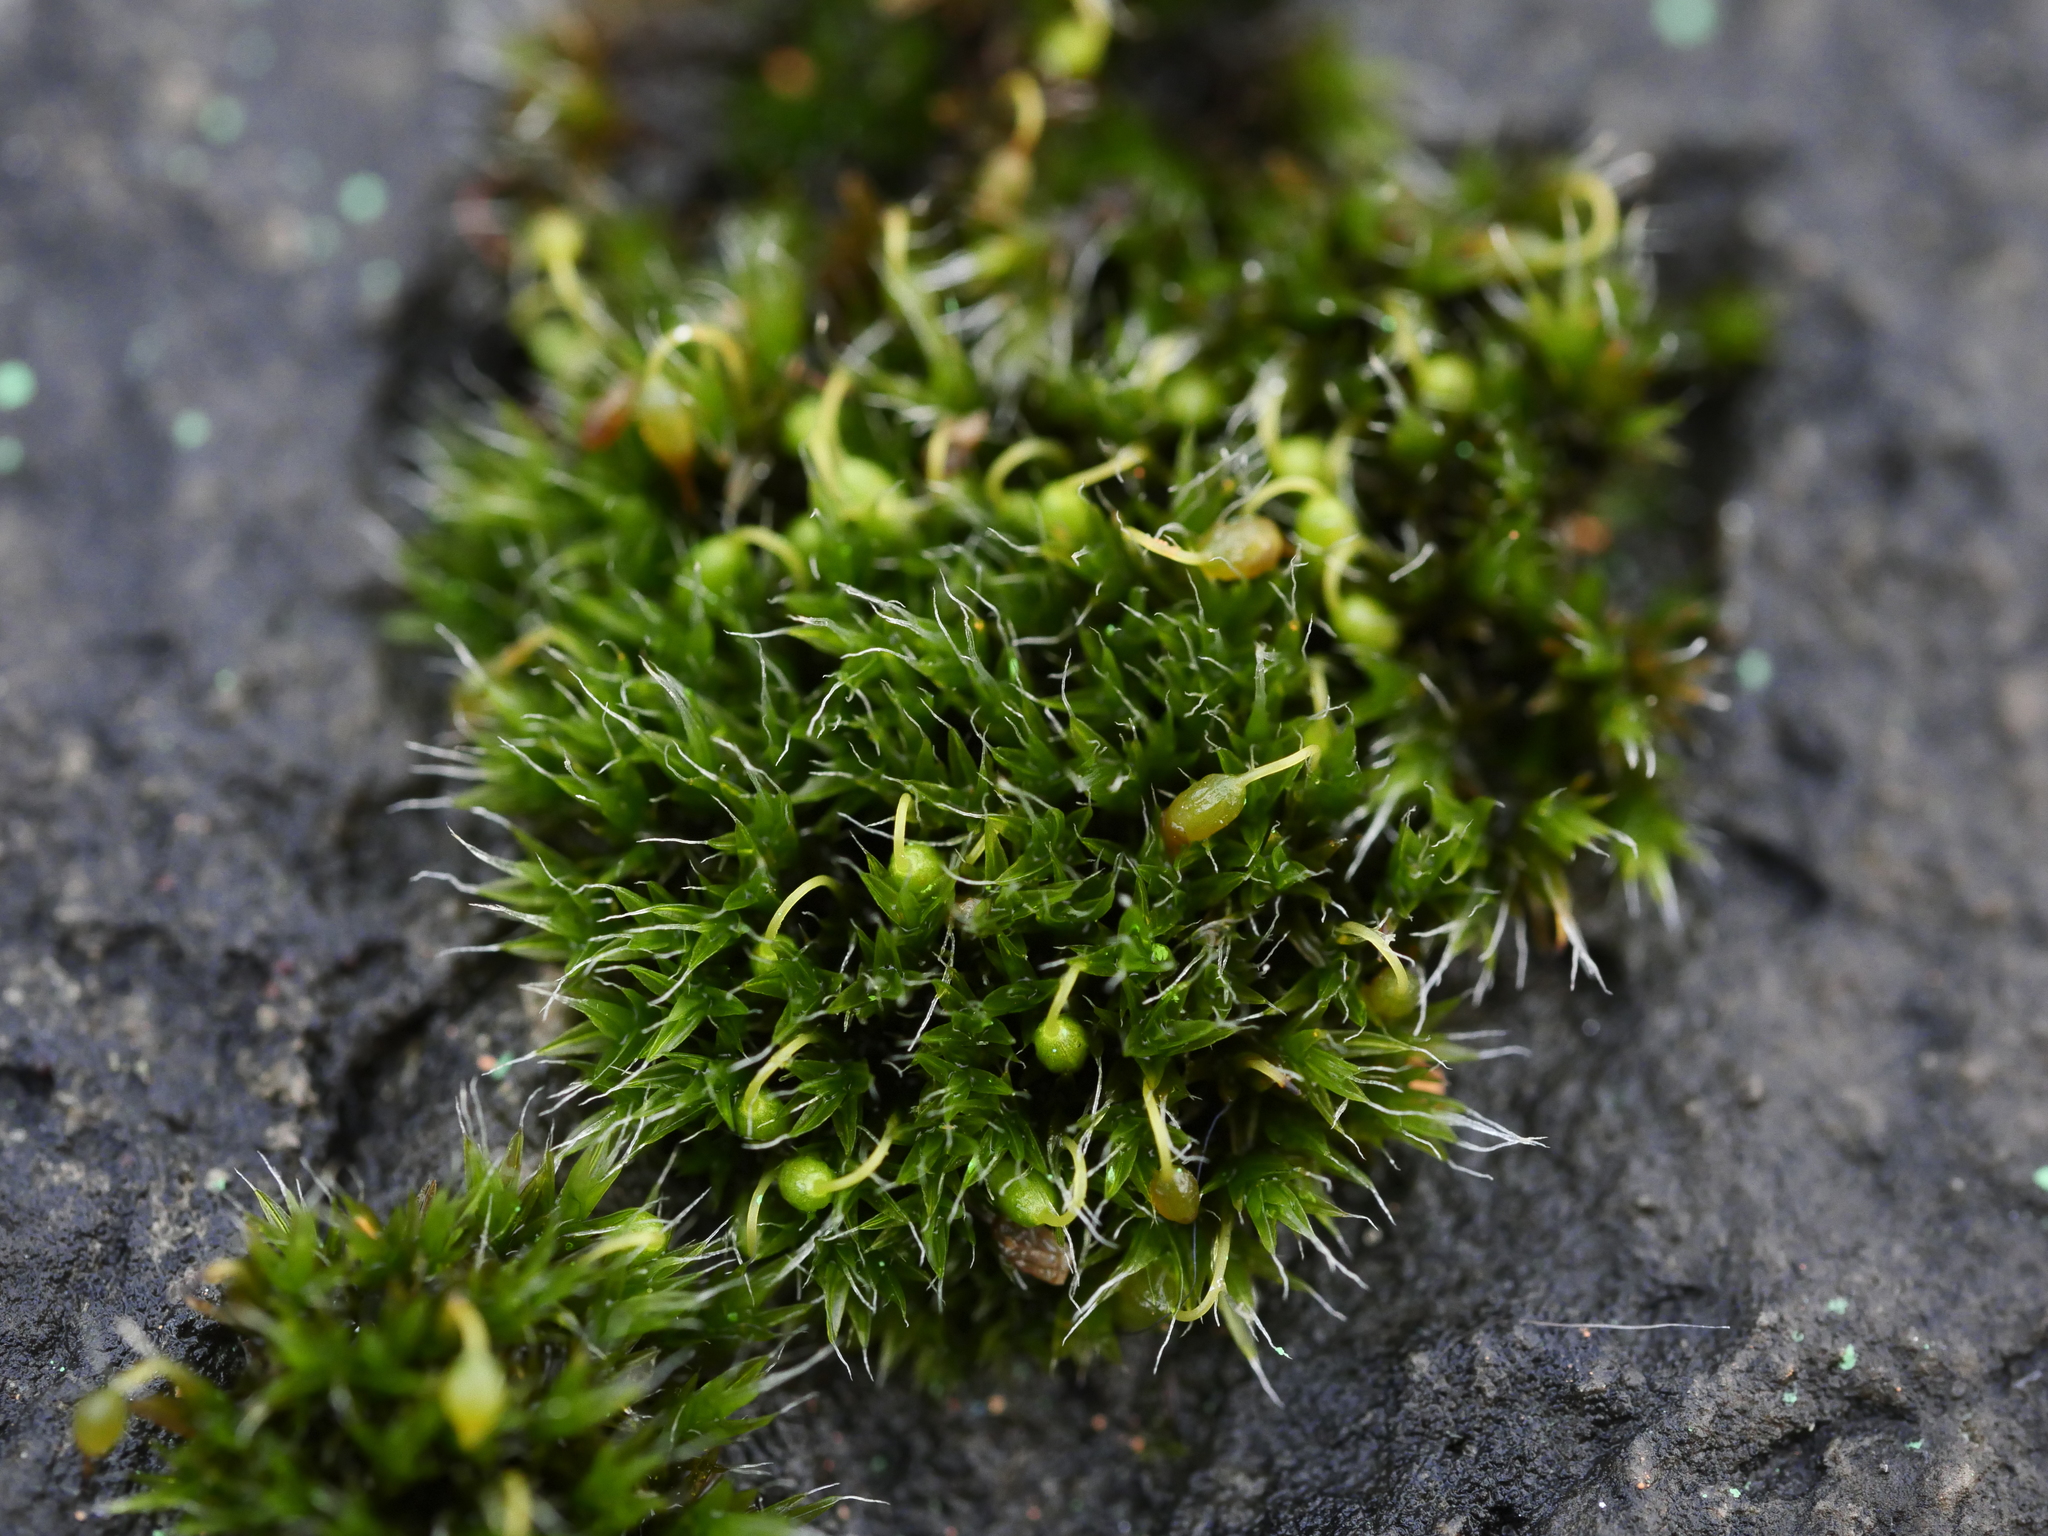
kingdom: Plantae
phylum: Bryophyta
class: Bryopsida
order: Grimmiales
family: Grimmiaceae
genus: Grimmia
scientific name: Grimmia pulvinata
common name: Grey-cushioned grimmia
